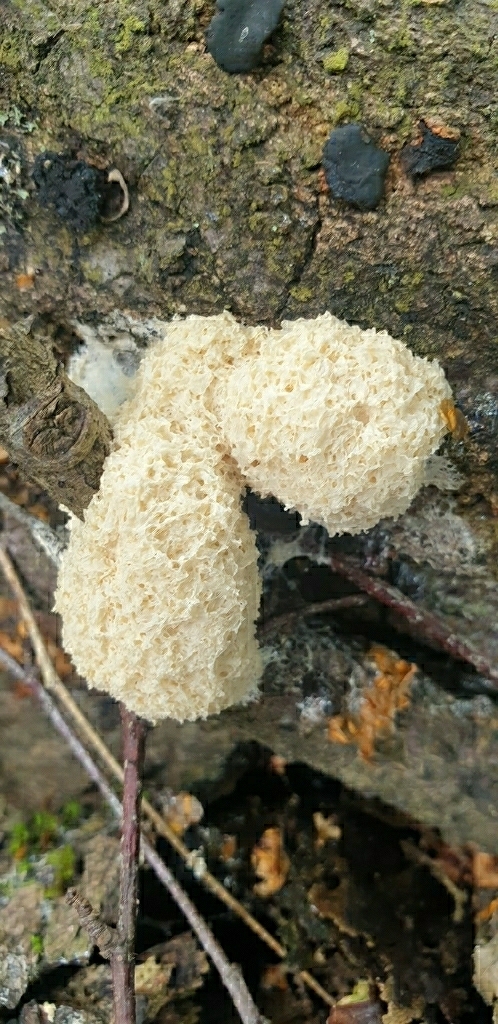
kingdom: Protozoa
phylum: Mycetozoa
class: Myxomycetes
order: Physarales
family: Physaraceae
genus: Didymium
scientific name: Didymium
